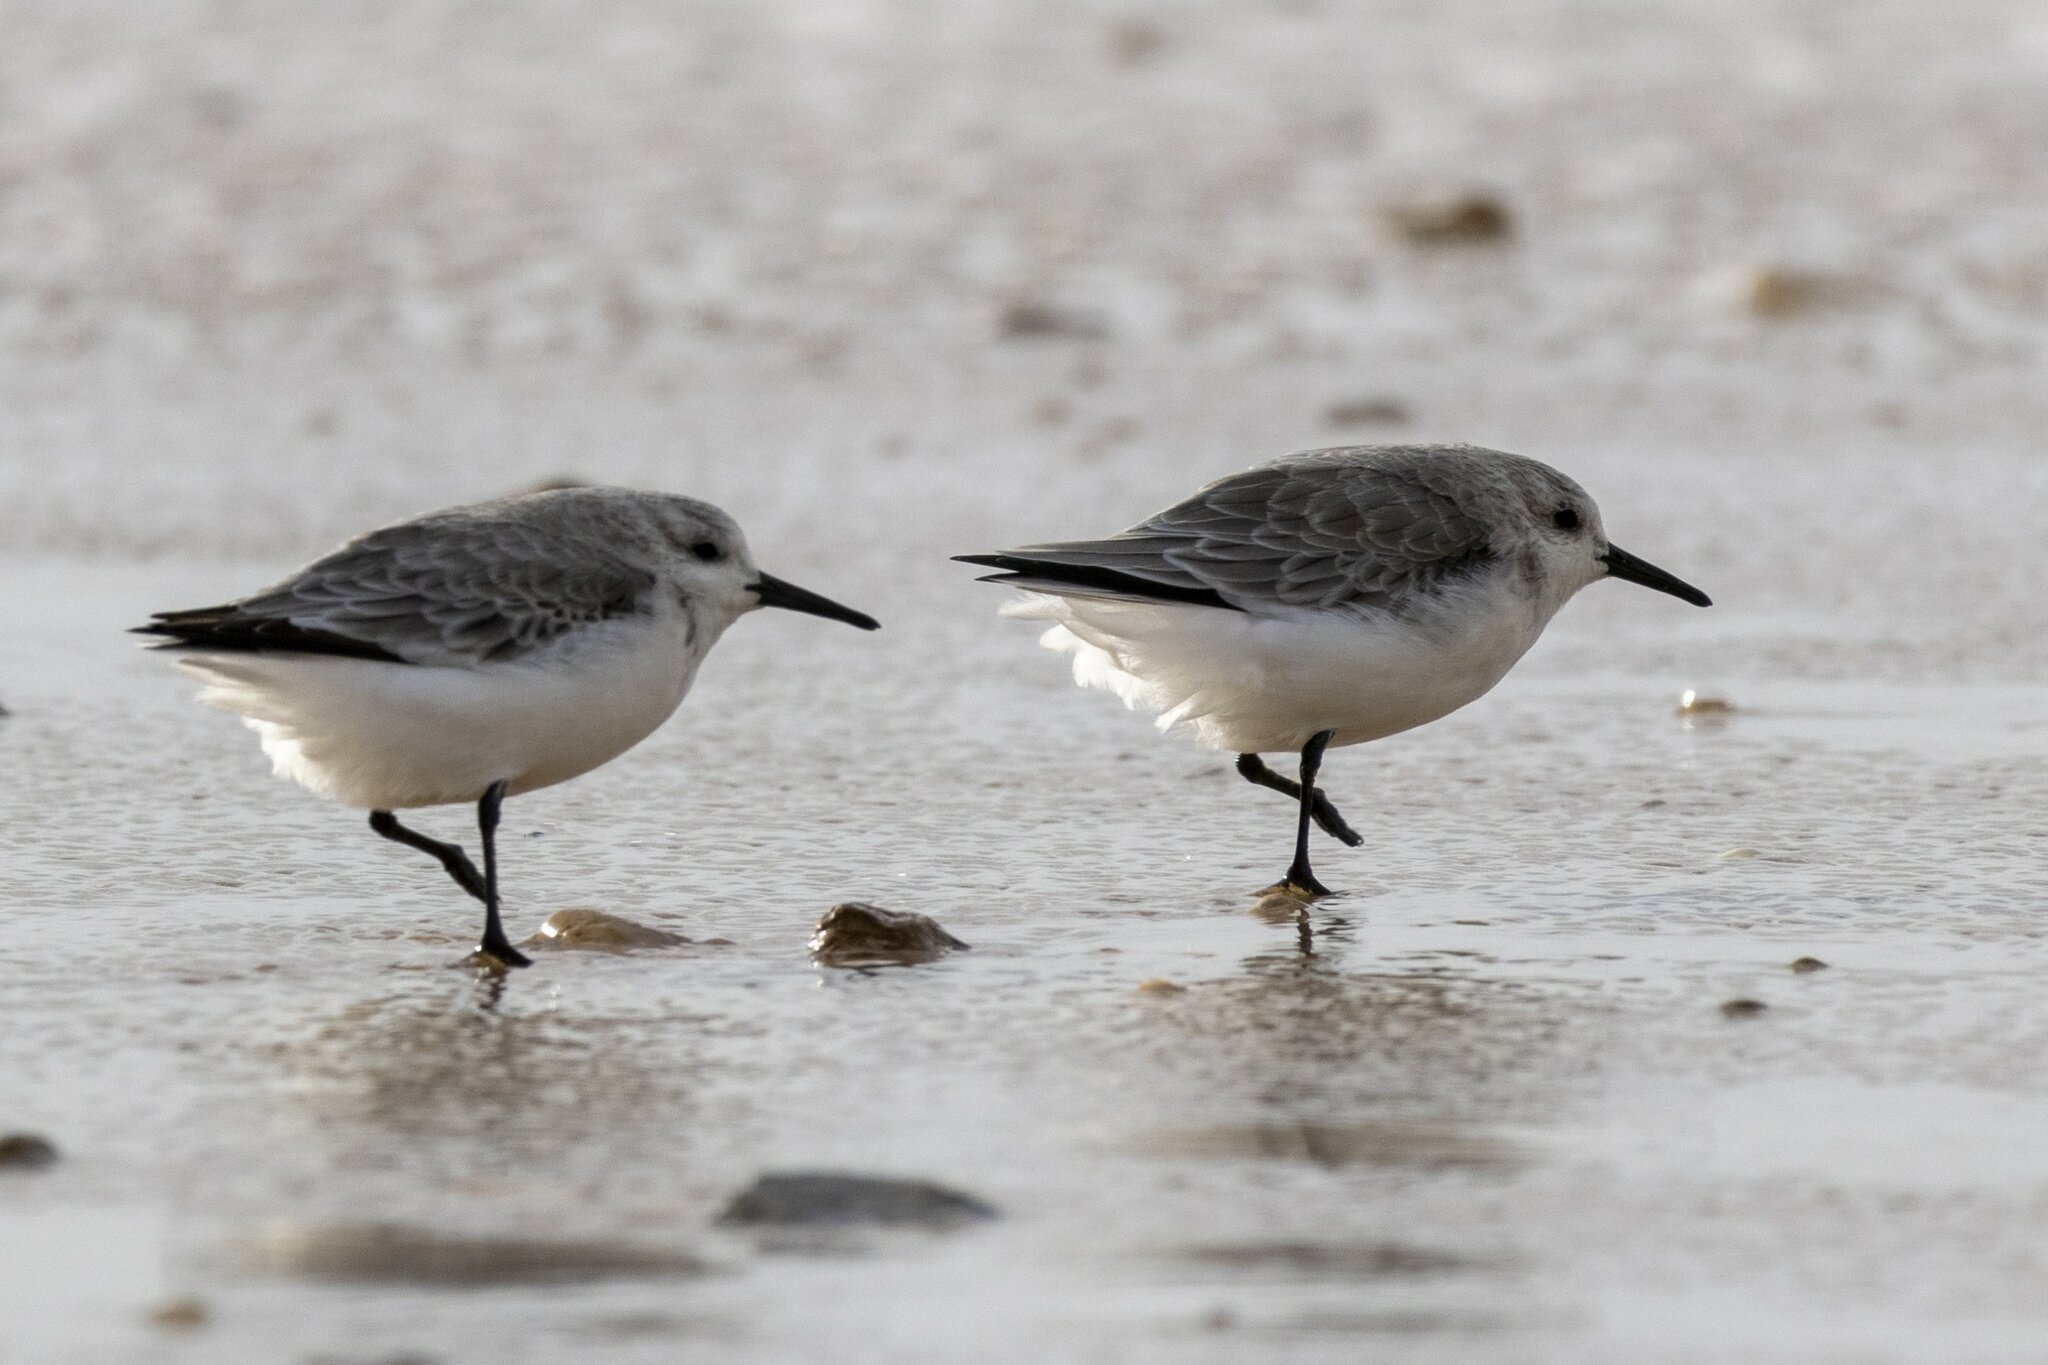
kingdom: Animalia
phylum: Chordata
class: Aves
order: Charadriiformes
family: Scolopacidae
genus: Calidris
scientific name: Calidris alba
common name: Sanderling
